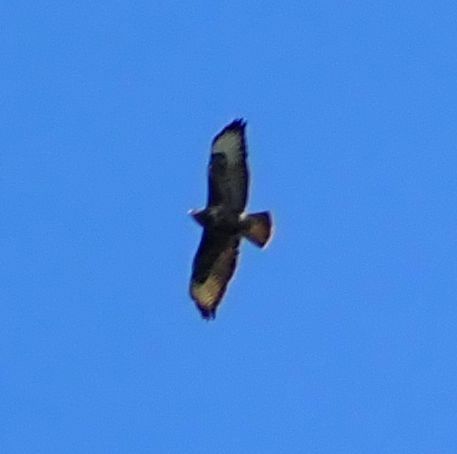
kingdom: Animalia
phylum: Chordata
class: Aves
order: Accipitriformes
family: Accipitridae
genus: Buteo
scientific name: Buteo buteo
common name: Common buzzard
